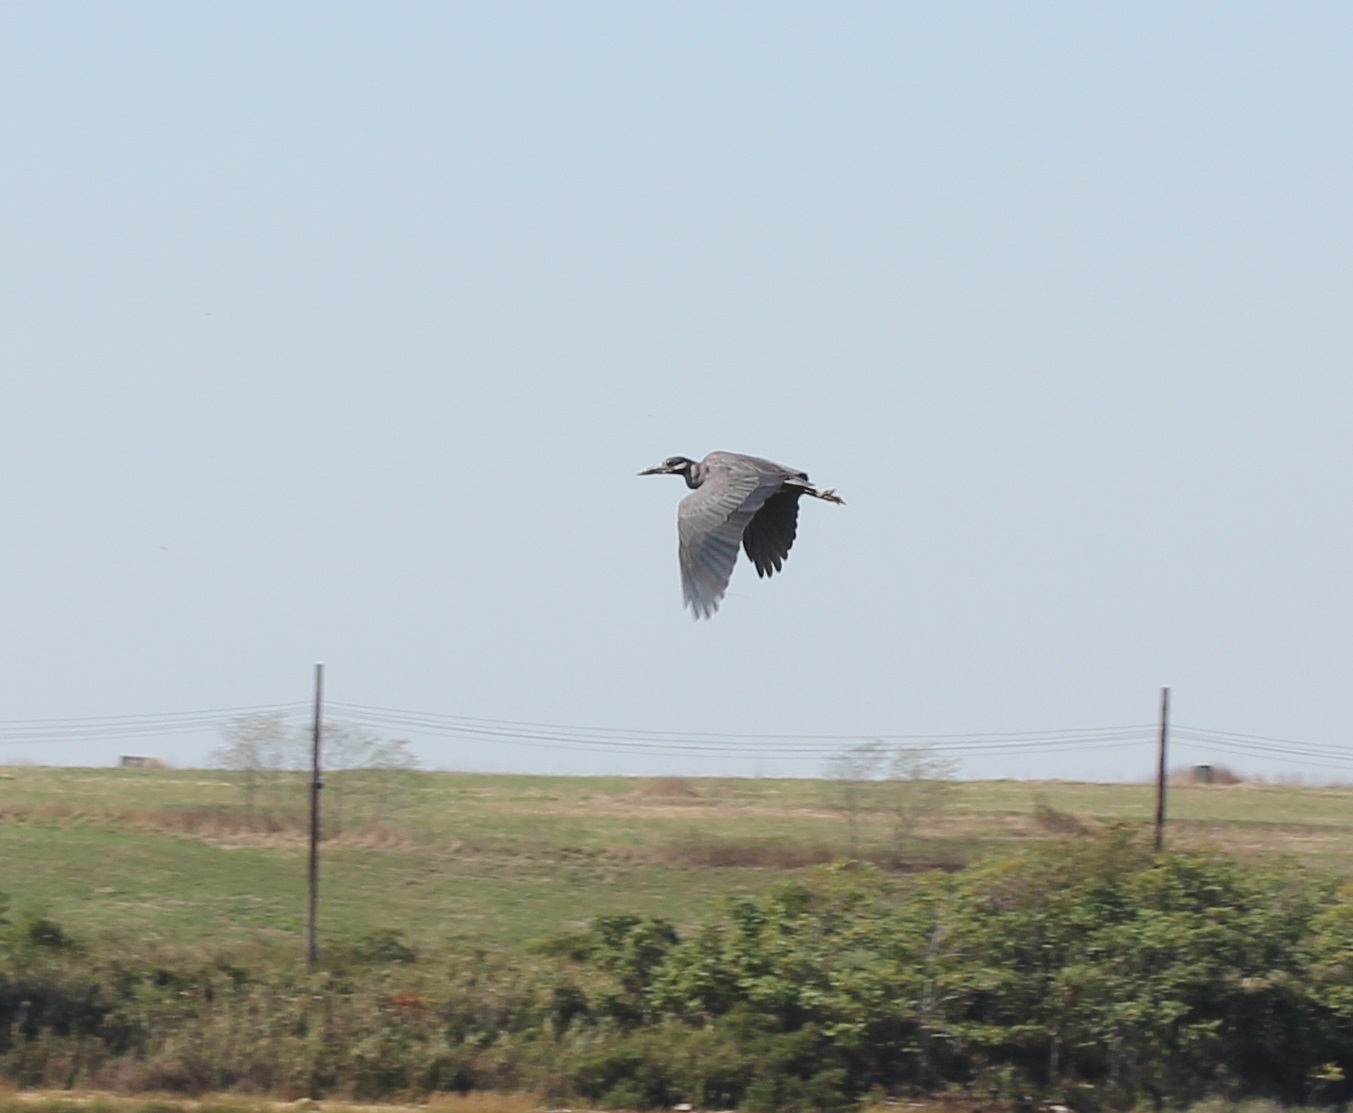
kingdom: Animalia
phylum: Chordata
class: Aves
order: Pelecaniformes
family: Ardeidae
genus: Nyctanassa
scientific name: Nyctanassa violacea
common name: Yellow-crowned night heron
